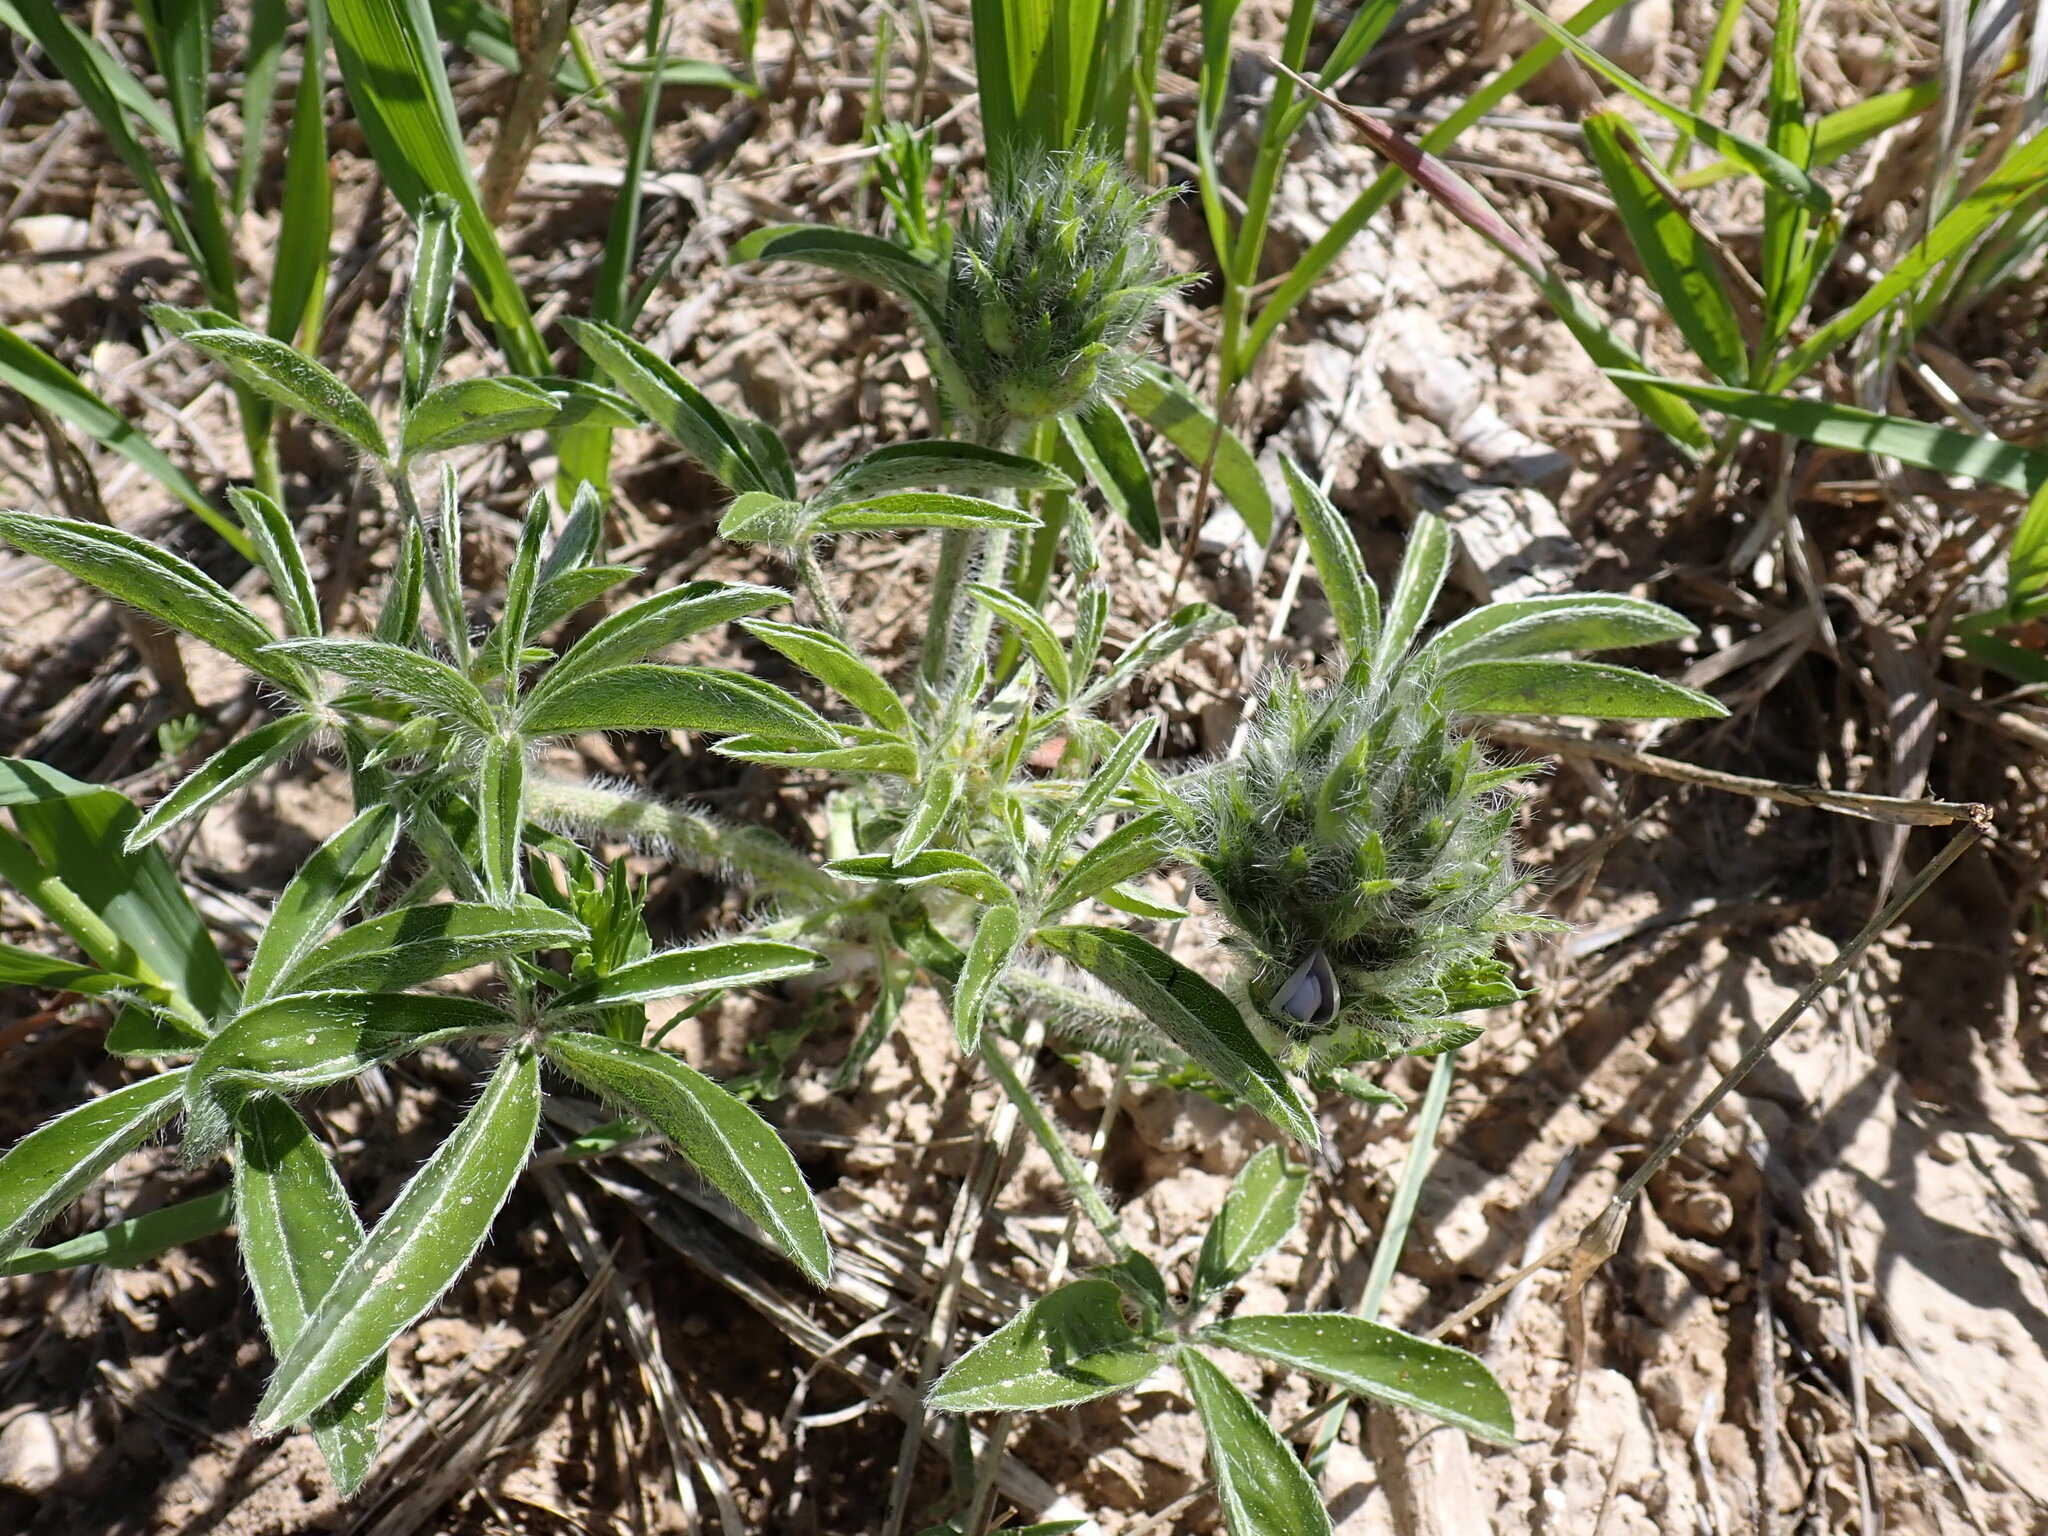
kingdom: Plantae
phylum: Tracheophyta
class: Magnoliopsida
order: Fabales
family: Fabaceae
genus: Pediomelum
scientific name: Pediomelum esculentum
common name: Indian-turnip
